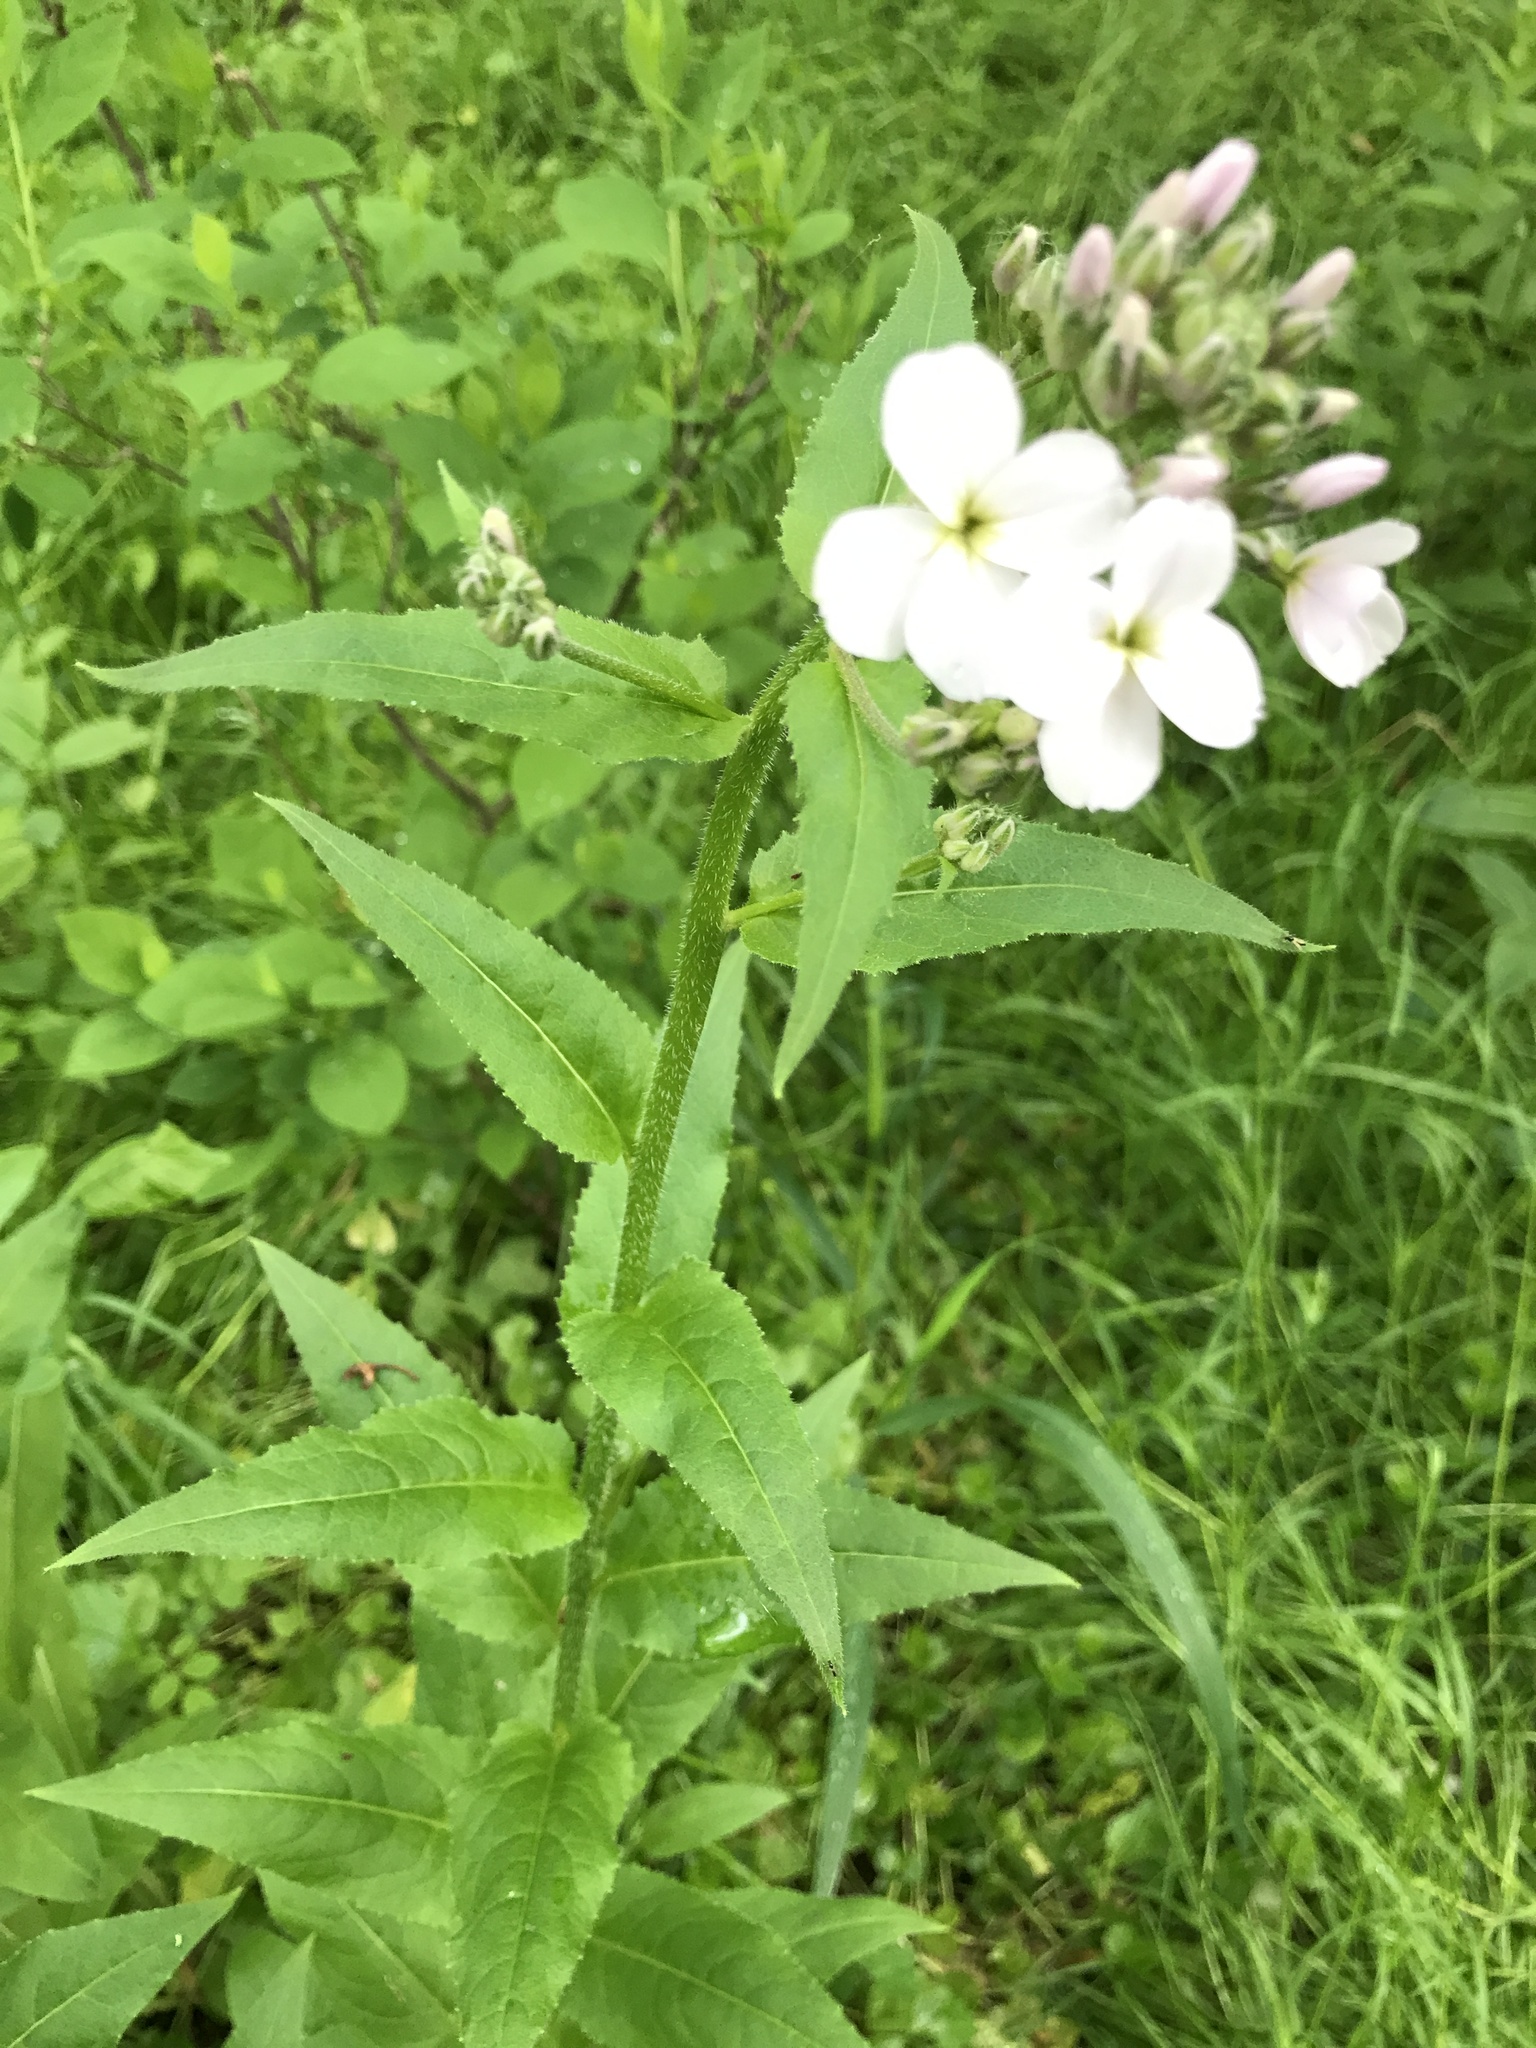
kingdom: Plantae
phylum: Tracheophyta
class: Magnoliopsida
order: Brassicales
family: Brassicaceae
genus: Hesperis
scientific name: Hesperis matronalis
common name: Dame's-violet
